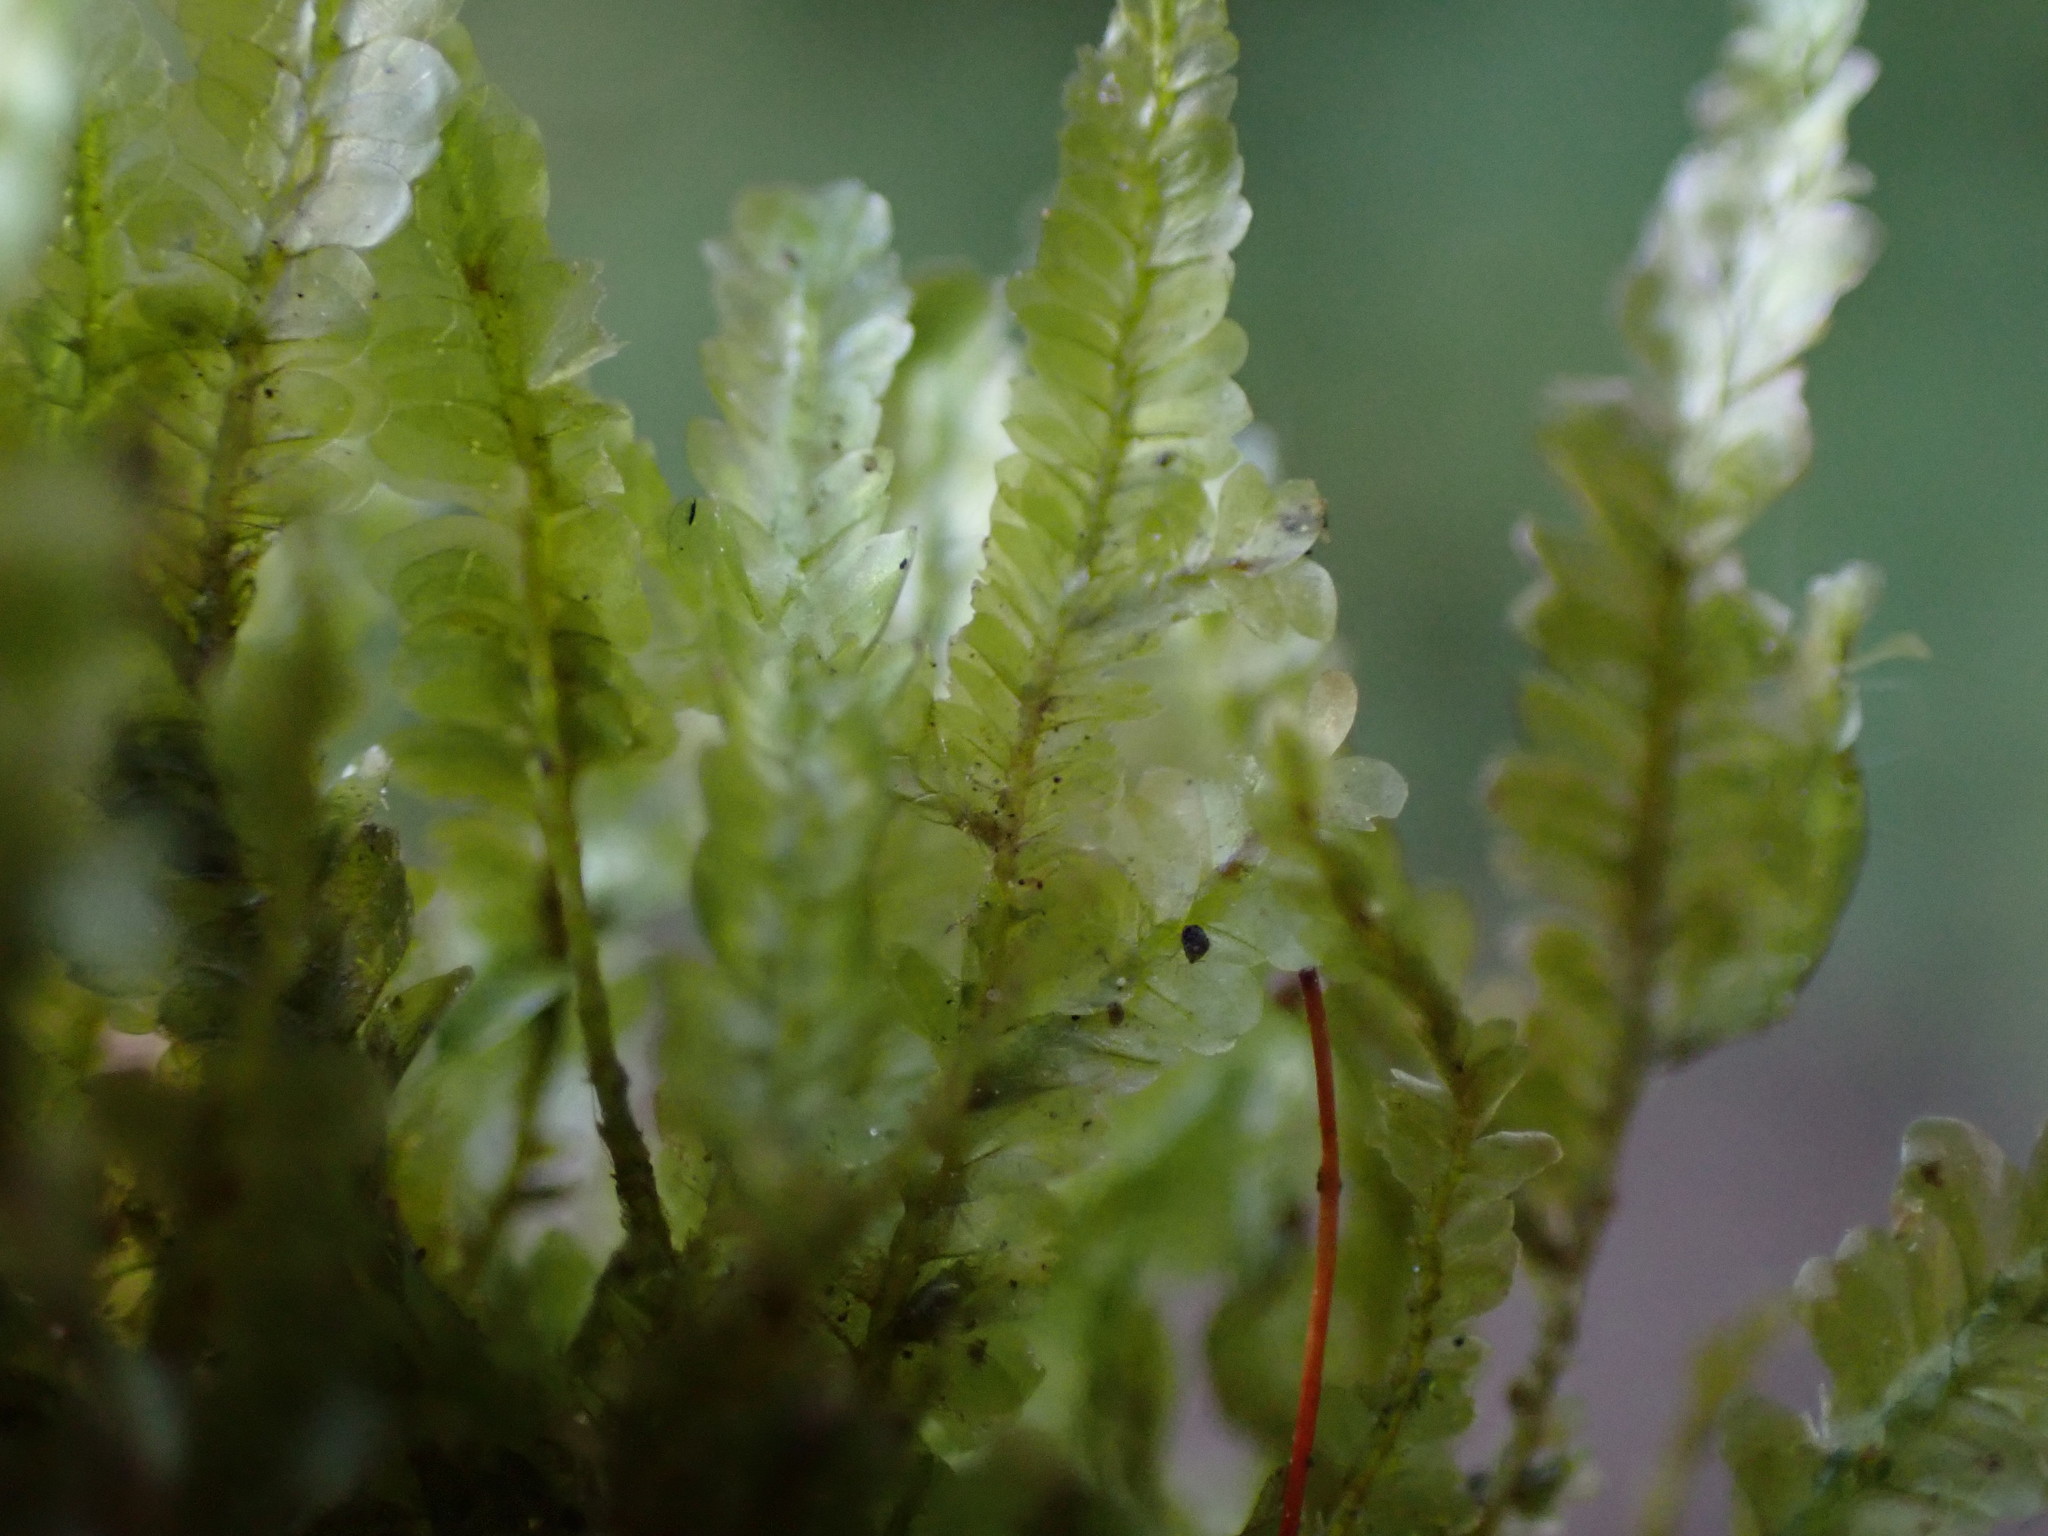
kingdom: Plantae
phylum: Bryophyta
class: Bryopsida
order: Hypnales
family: Neckeraceae
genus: Homalia
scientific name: Homalia trichomanoides
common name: Lime homalia moss
